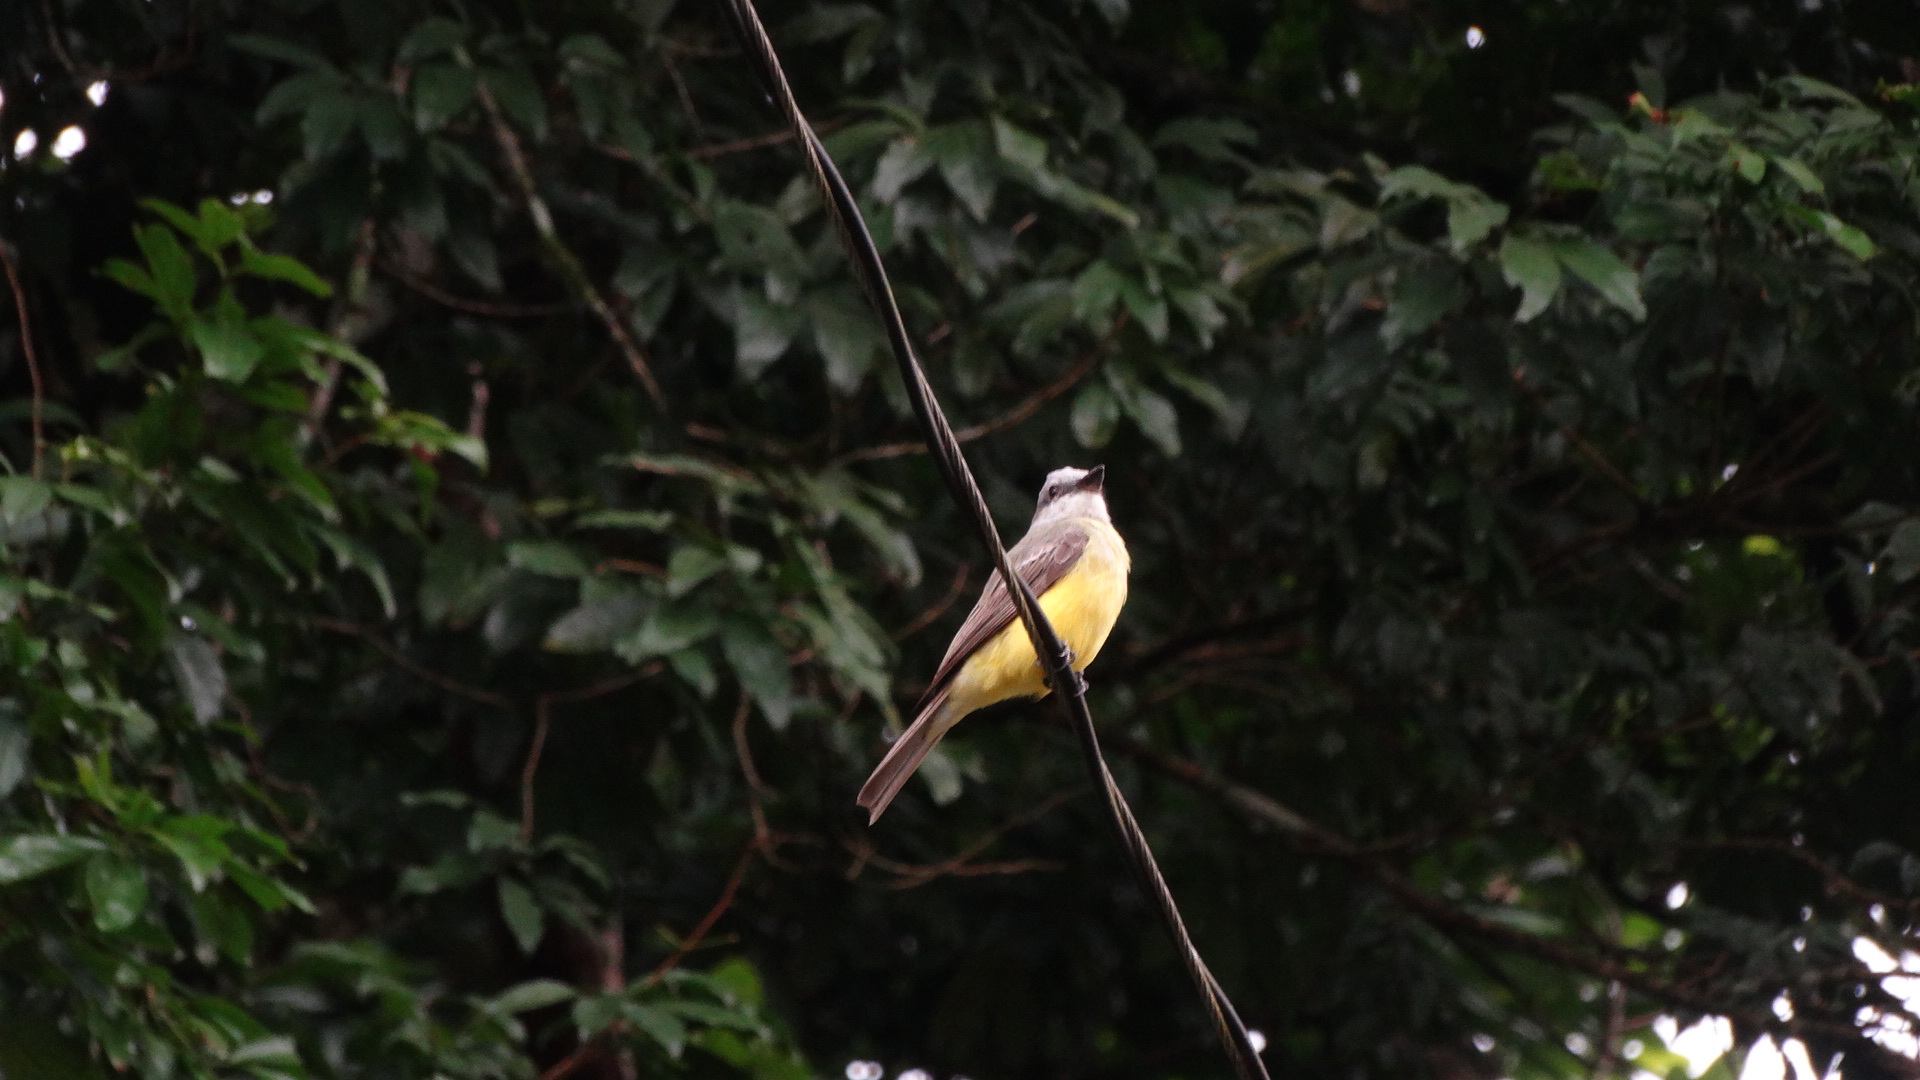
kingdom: Animalia
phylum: Chordata
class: Aves
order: Passeriformes
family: Tyrannidae
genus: Tyrannus
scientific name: Tyrannus melancholicus
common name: Tropical kingbird
